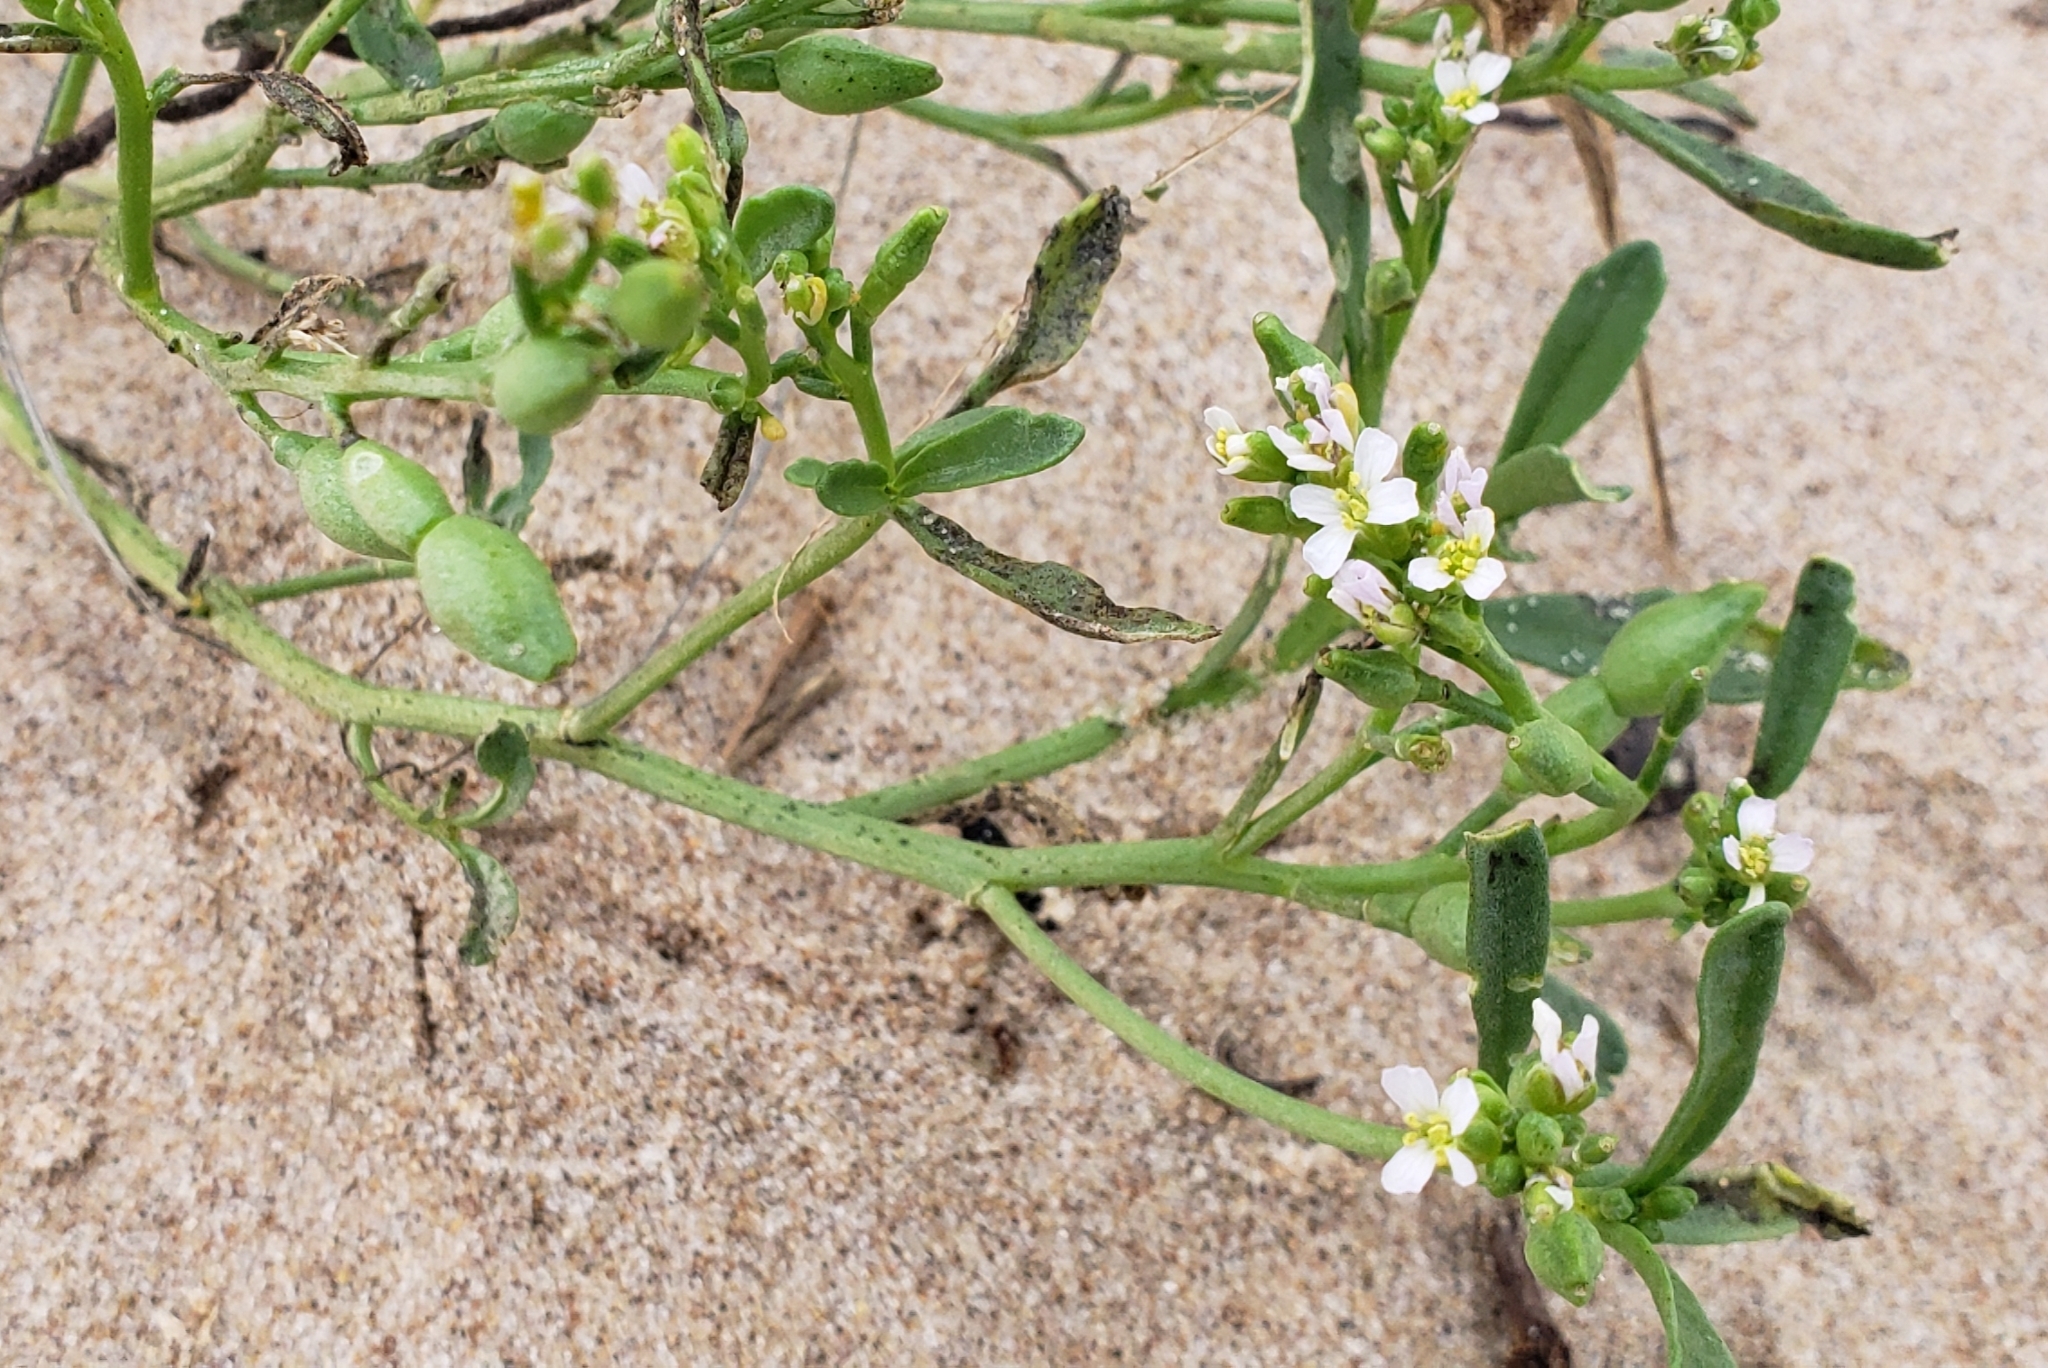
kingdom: Plantae
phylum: Tracheophyta
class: Magnoliopsida
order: Brassicales
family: Brassicaceae
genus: Cakile
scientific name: Cakile edentula
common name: American sea rocket
